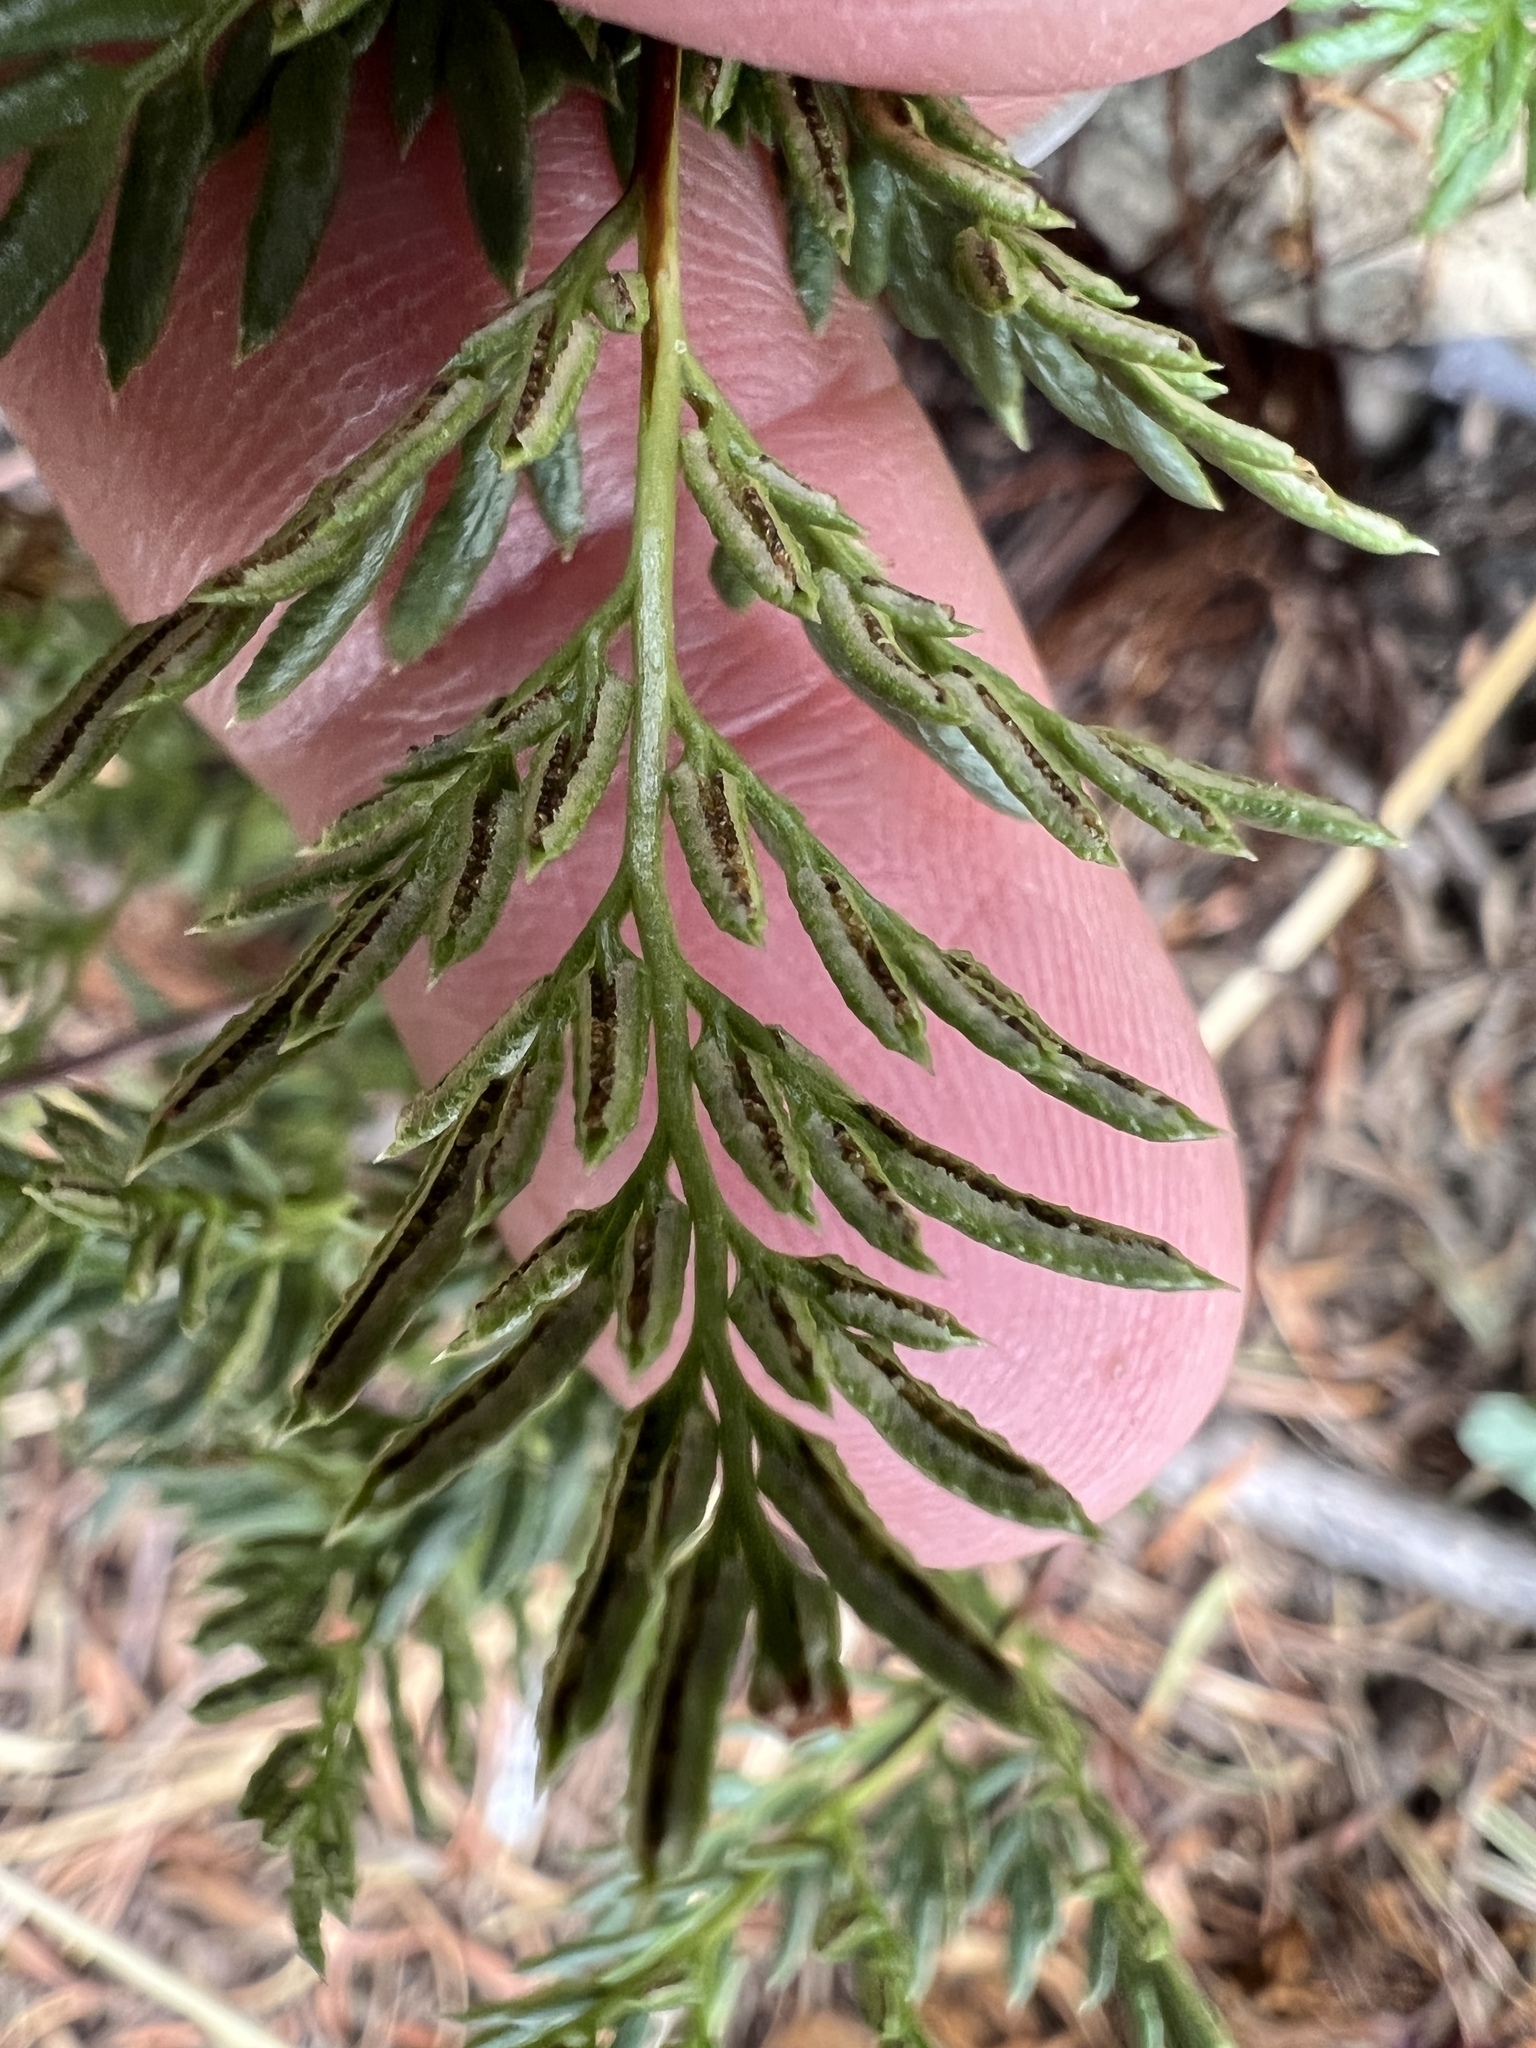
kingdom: Plantae
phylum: Tracheophyta
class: Polypodiopsida
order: Polypodiales
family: Pteridaceae
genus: Aspidotis
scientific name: Aspidotis densa
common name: Indian's dream
